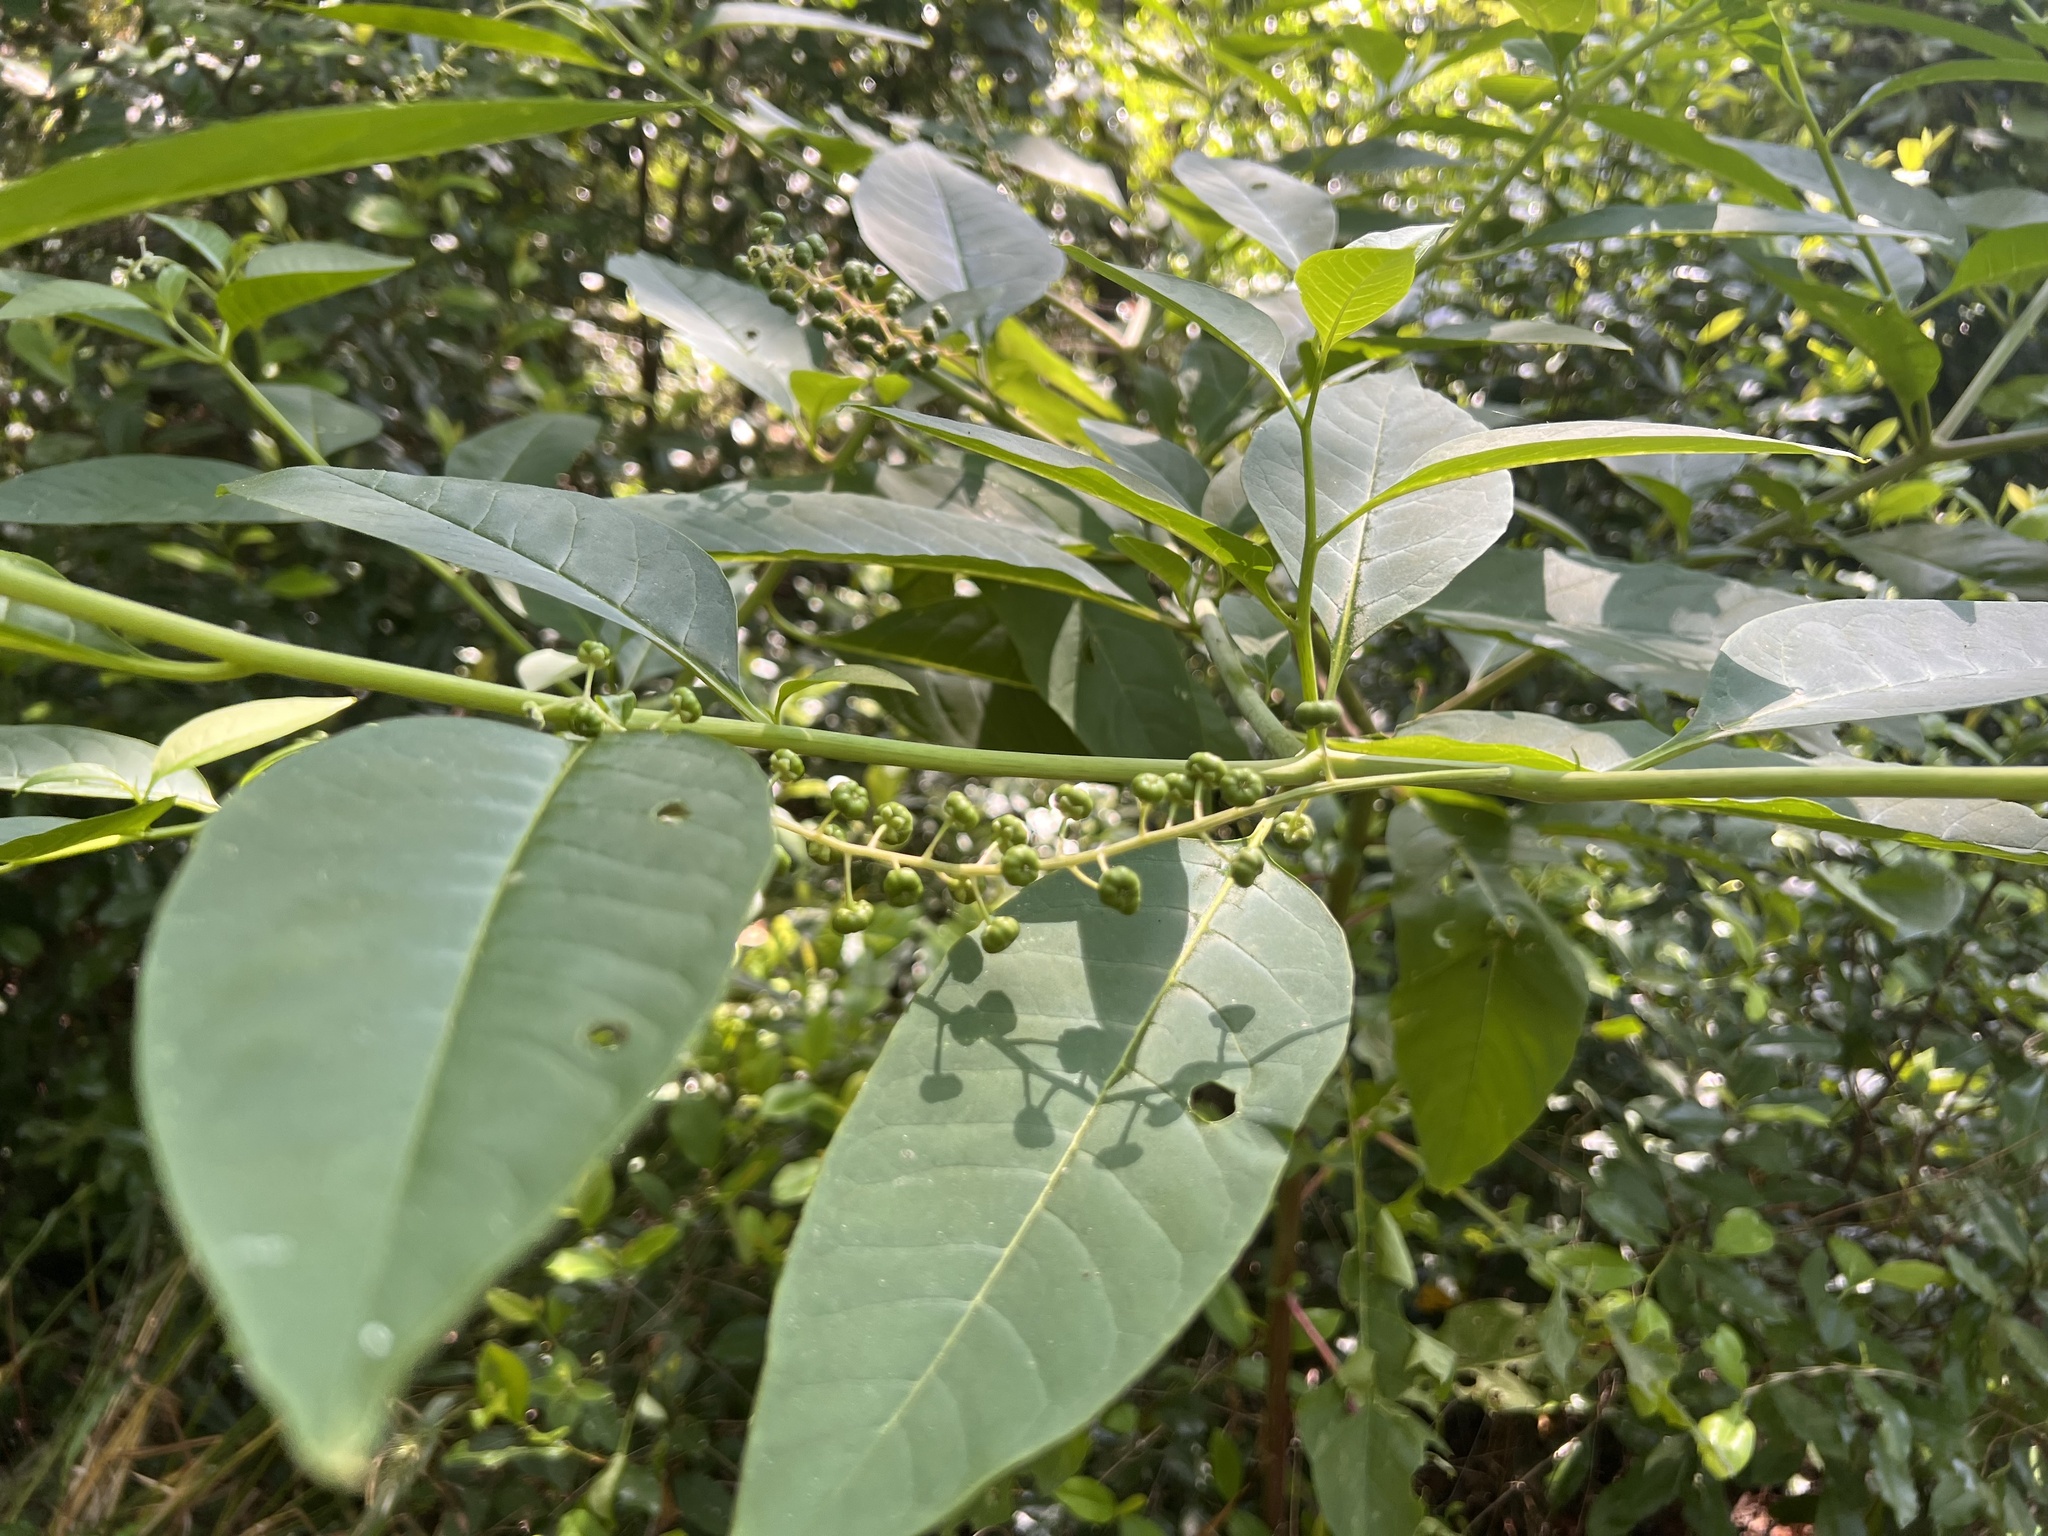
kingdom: Plantae
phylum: Tracheophyta
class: Magnoliopsida
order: Caryophyllales
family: Phytolaccaceae
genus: Phytolacca
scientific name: Phytolacca americana
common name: American pokeweed
